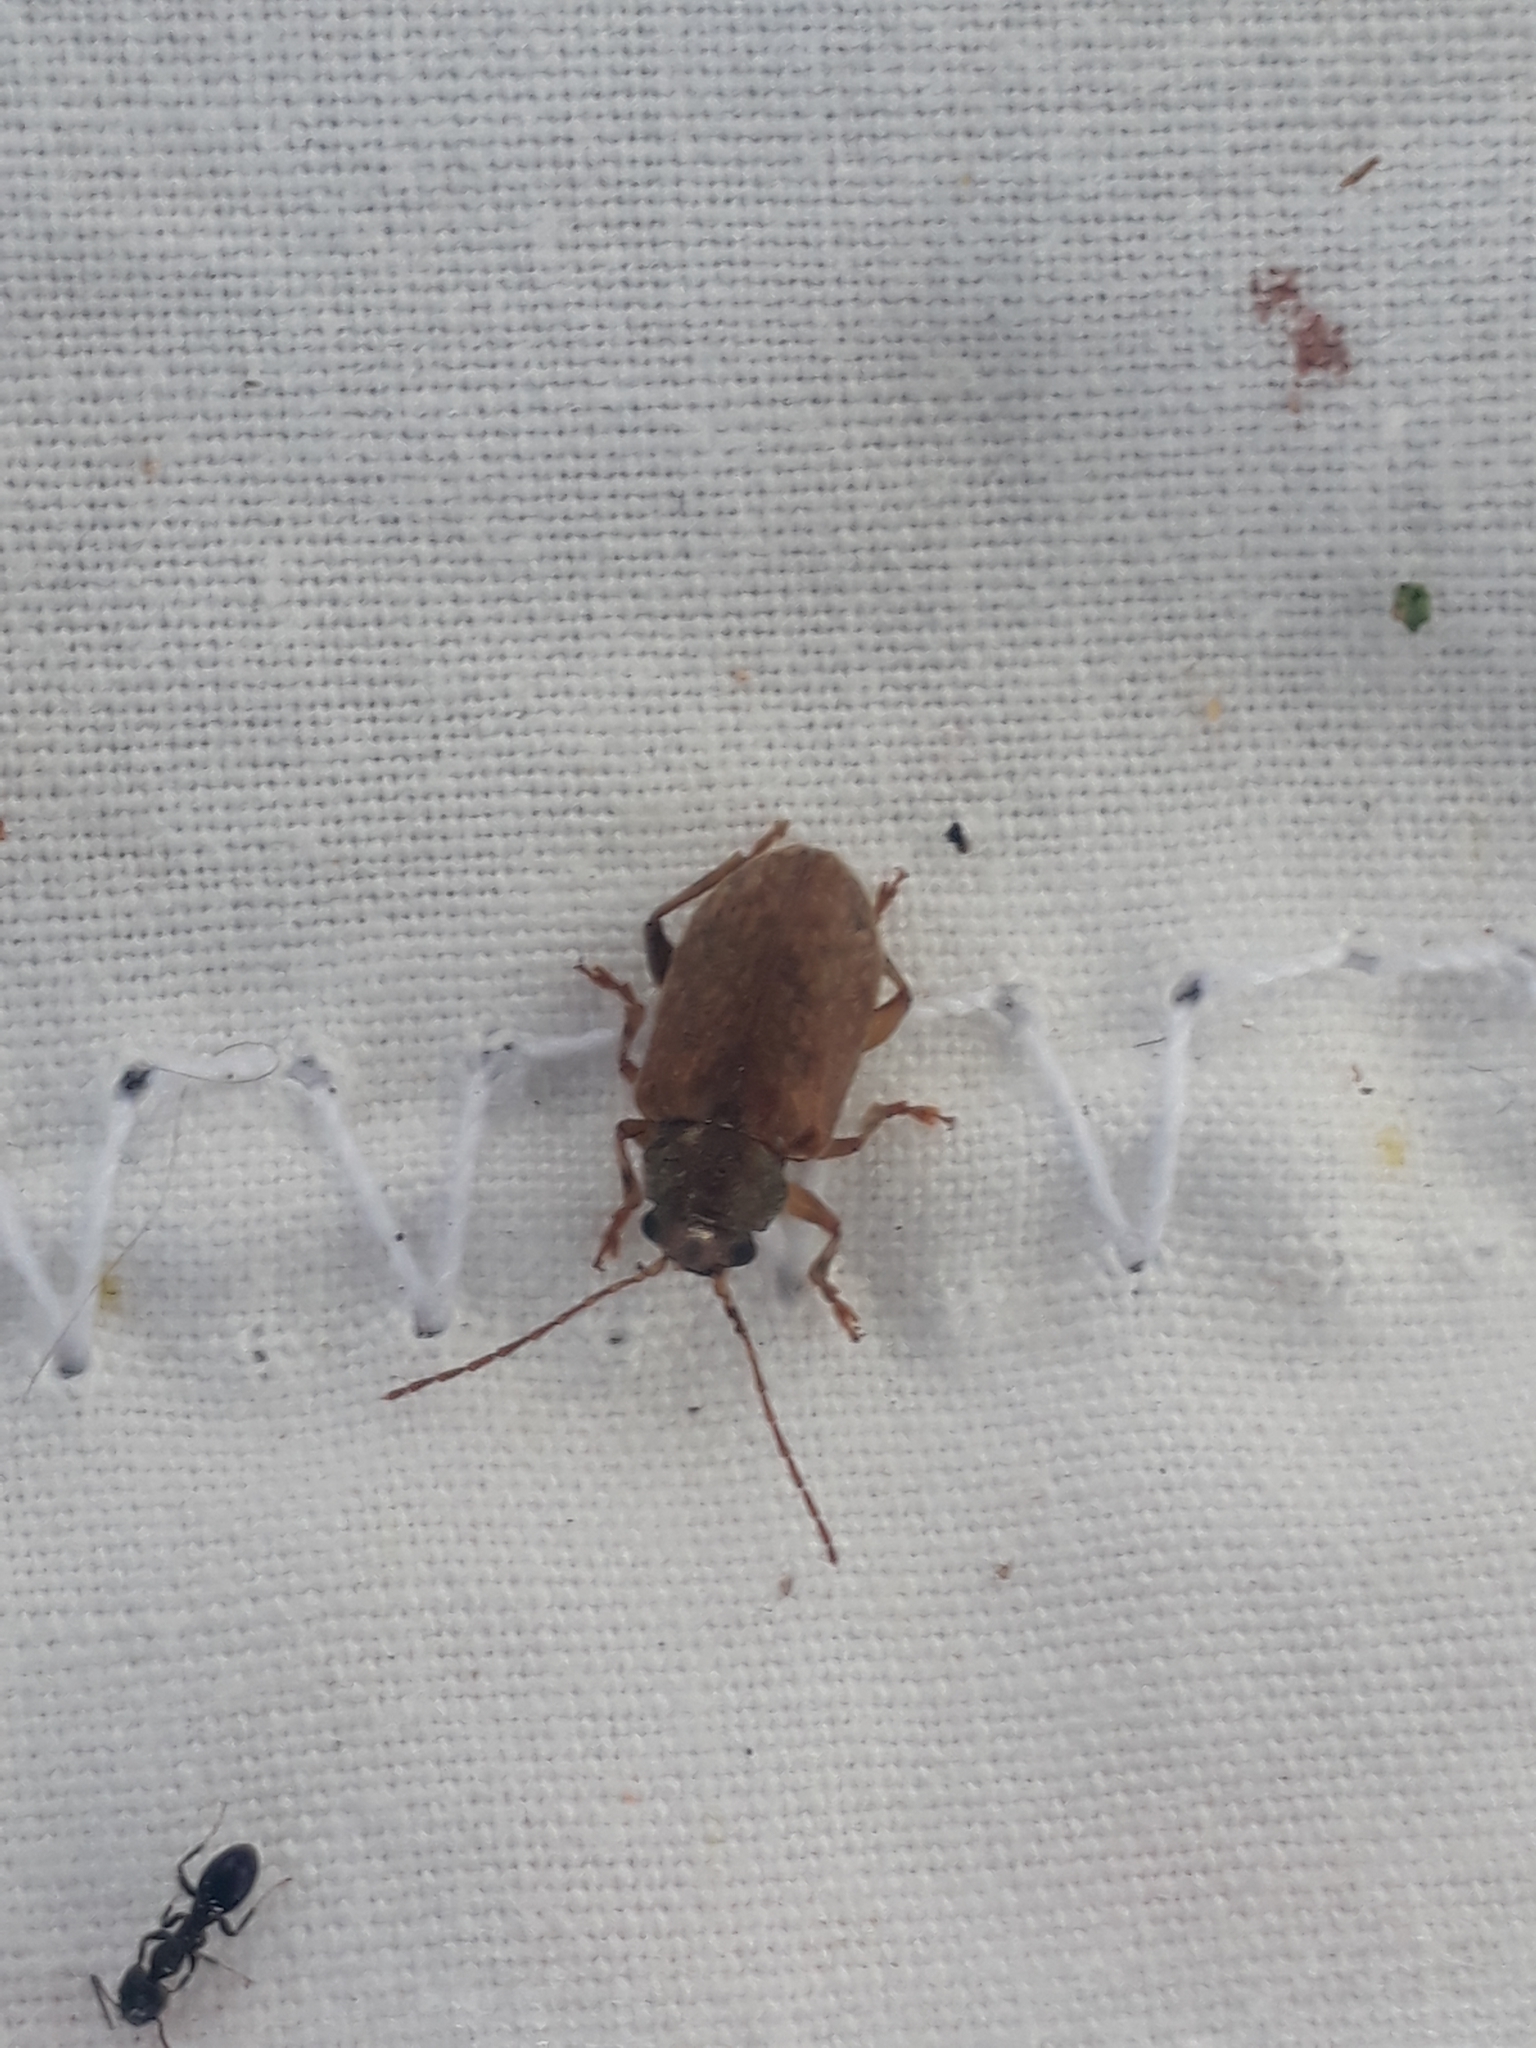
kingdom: Animalia
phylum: Arthropoda
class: Insecta
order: Coleoptera
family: Chrysomelidae
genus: Pilacolaspis
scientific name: Pilacolaspis latipennis
